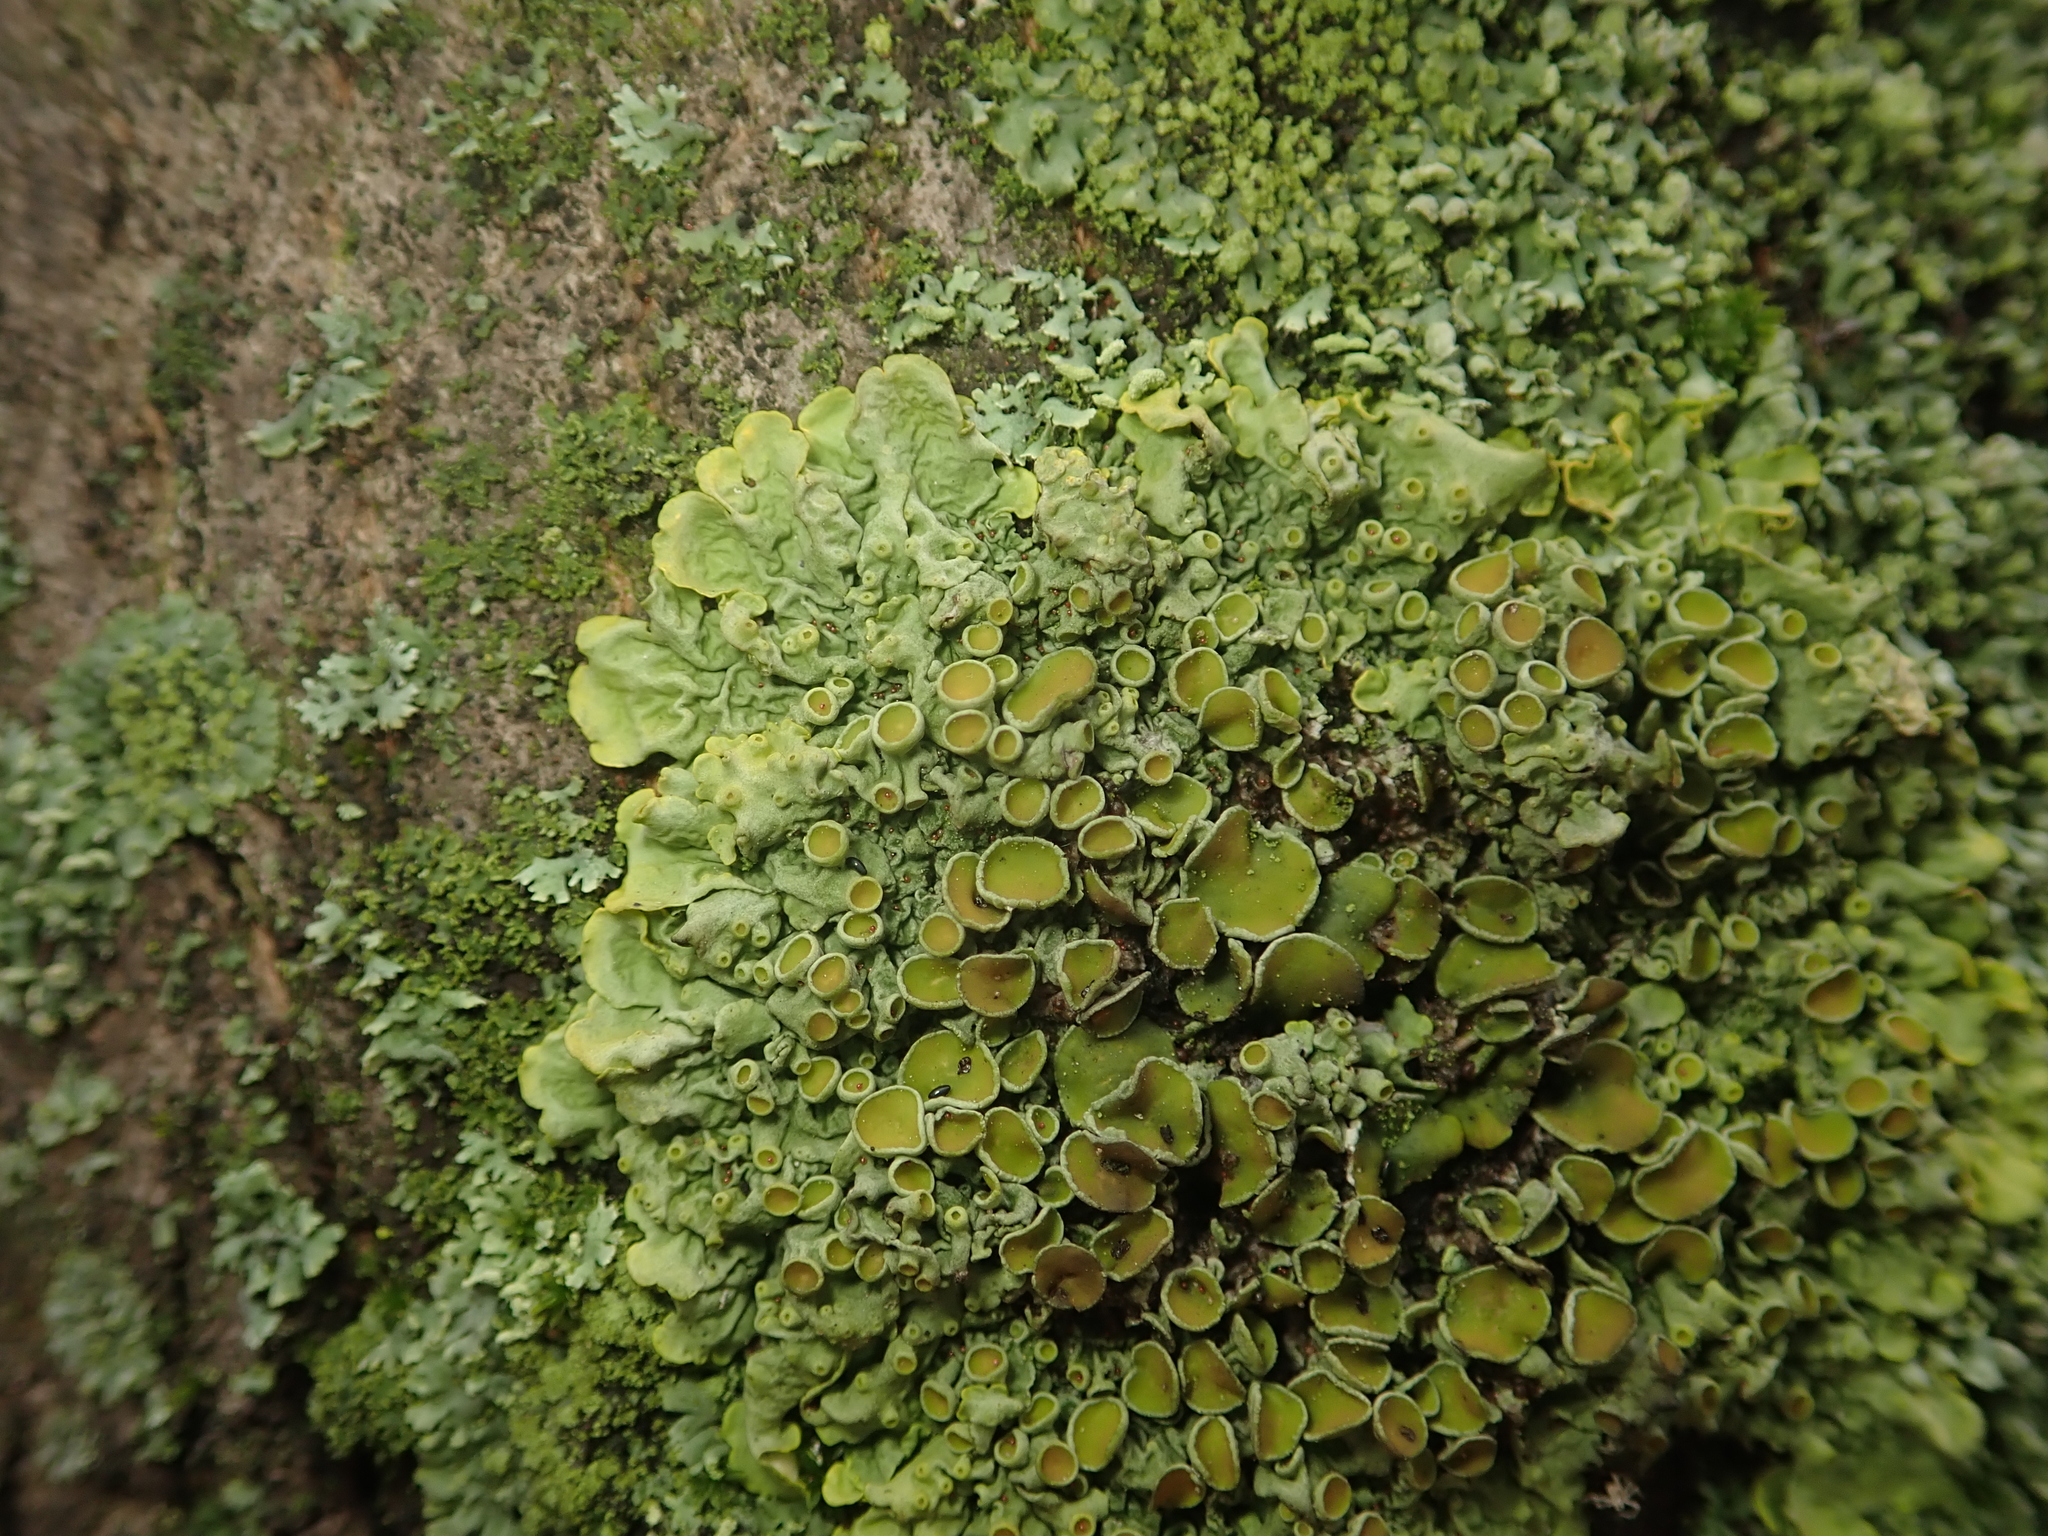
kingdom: Fungi
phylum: Ascomycota
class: Lecanoromycetes
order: Teloschistales
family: Teloschistaceae
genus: Xanthoria
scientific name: Xanthoria parietina
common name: Common orange lichen
